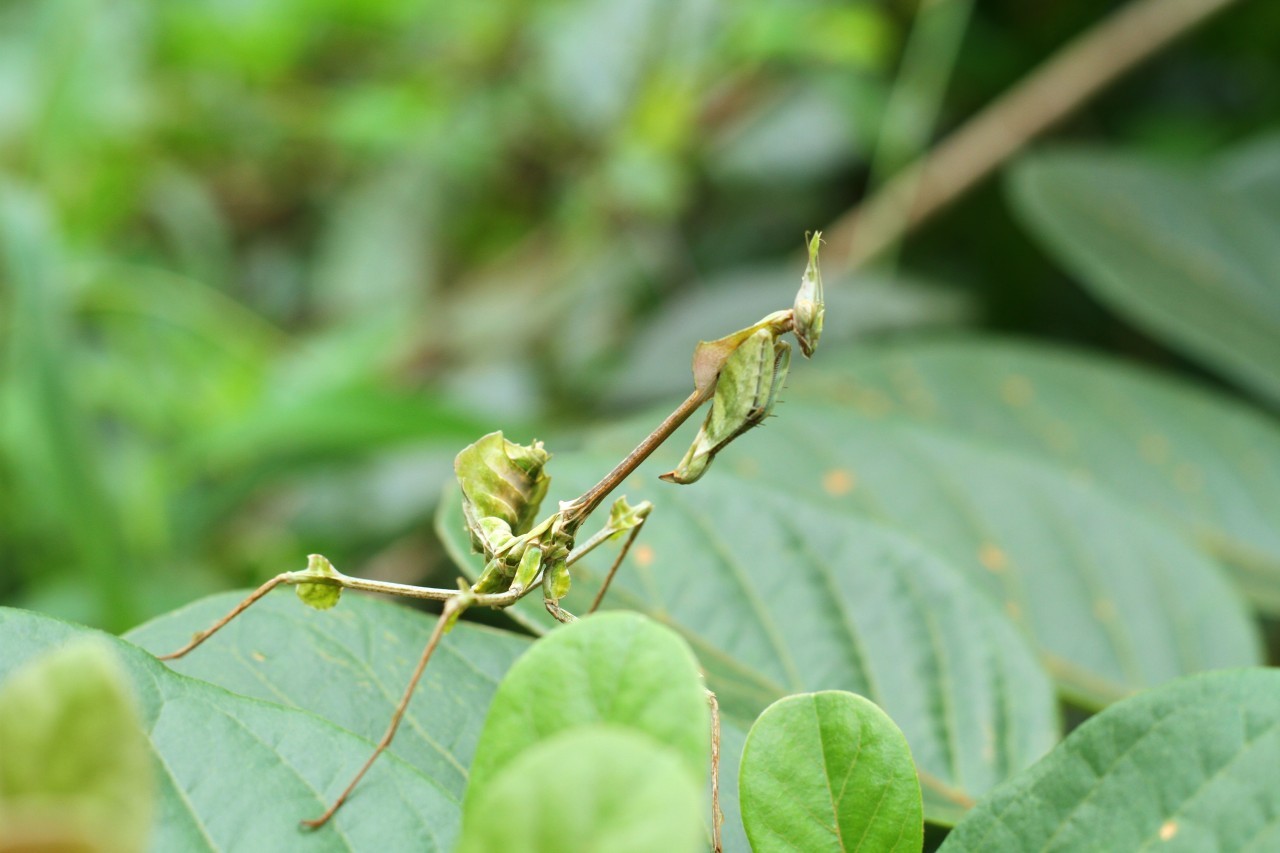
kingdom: Animalia
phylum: Arthropoda
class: Insecta
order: Mantodea
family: Empusidae
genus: Gongylus
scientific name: Gongylus gongylodes
